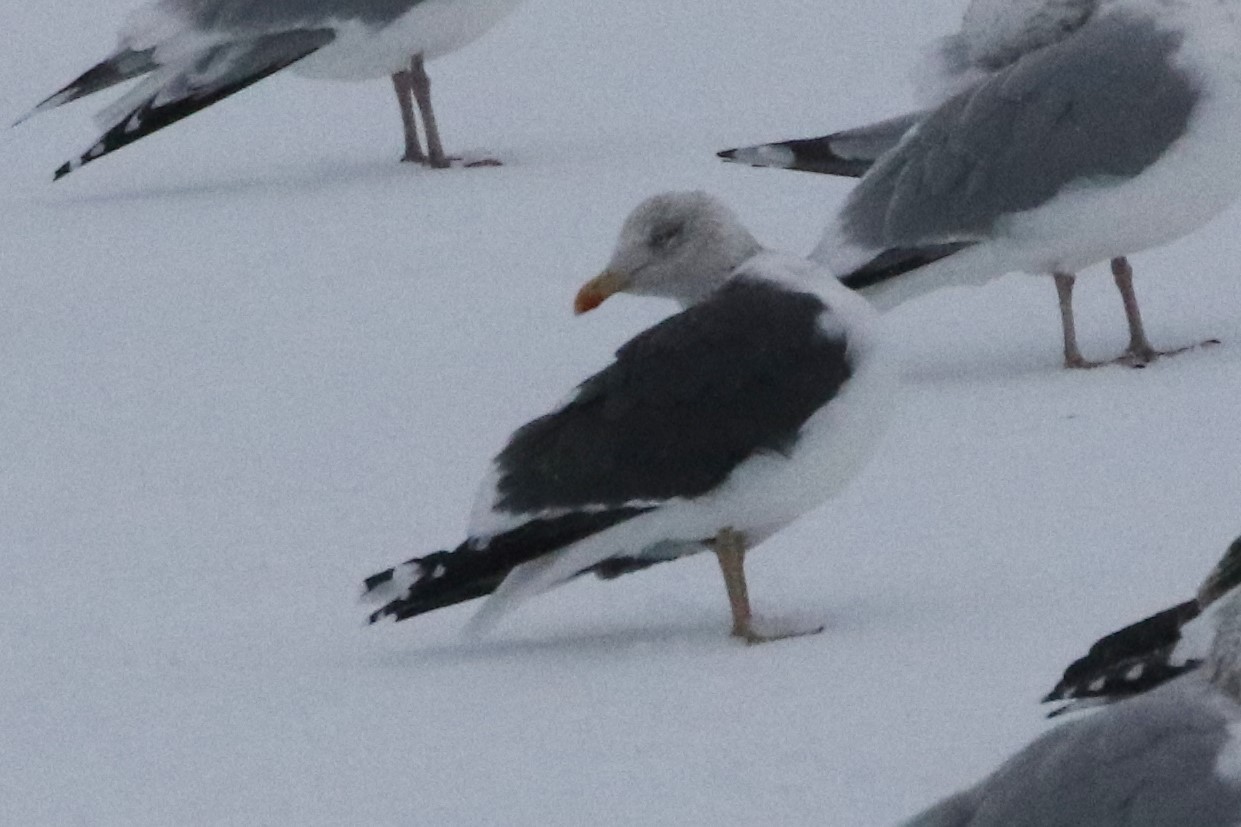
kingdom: Animalia
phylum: Chordata
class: Aves
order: Charadriiformes
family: Laridae
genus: Larus
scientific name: Larus fuscus
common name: Lesser black-backed gull
